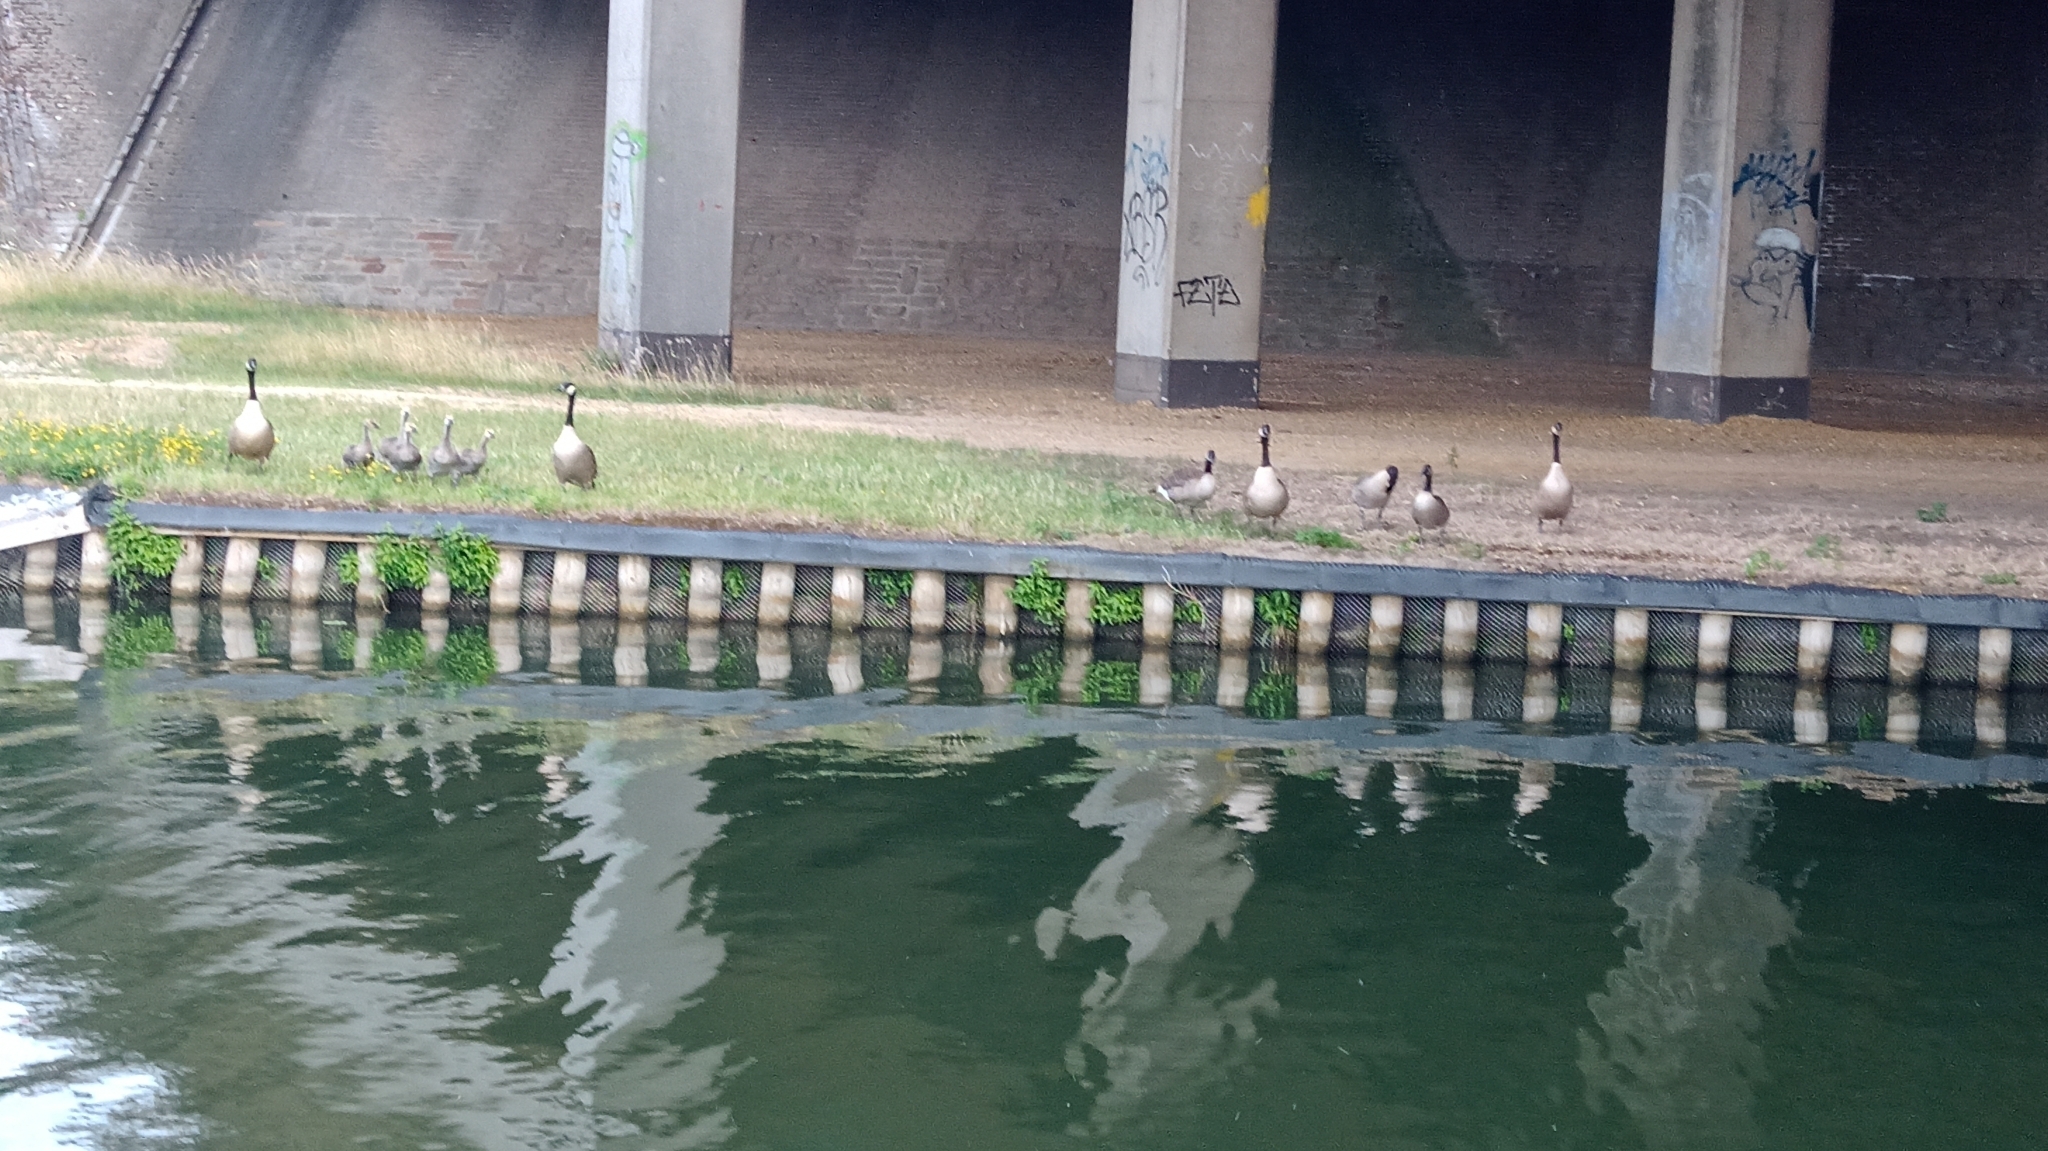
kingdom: Animalia
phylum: Chordata
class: Aves
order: Anseriformes
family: Anatidae
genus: Branta
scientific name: Branta canadensis
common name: Canada goose
